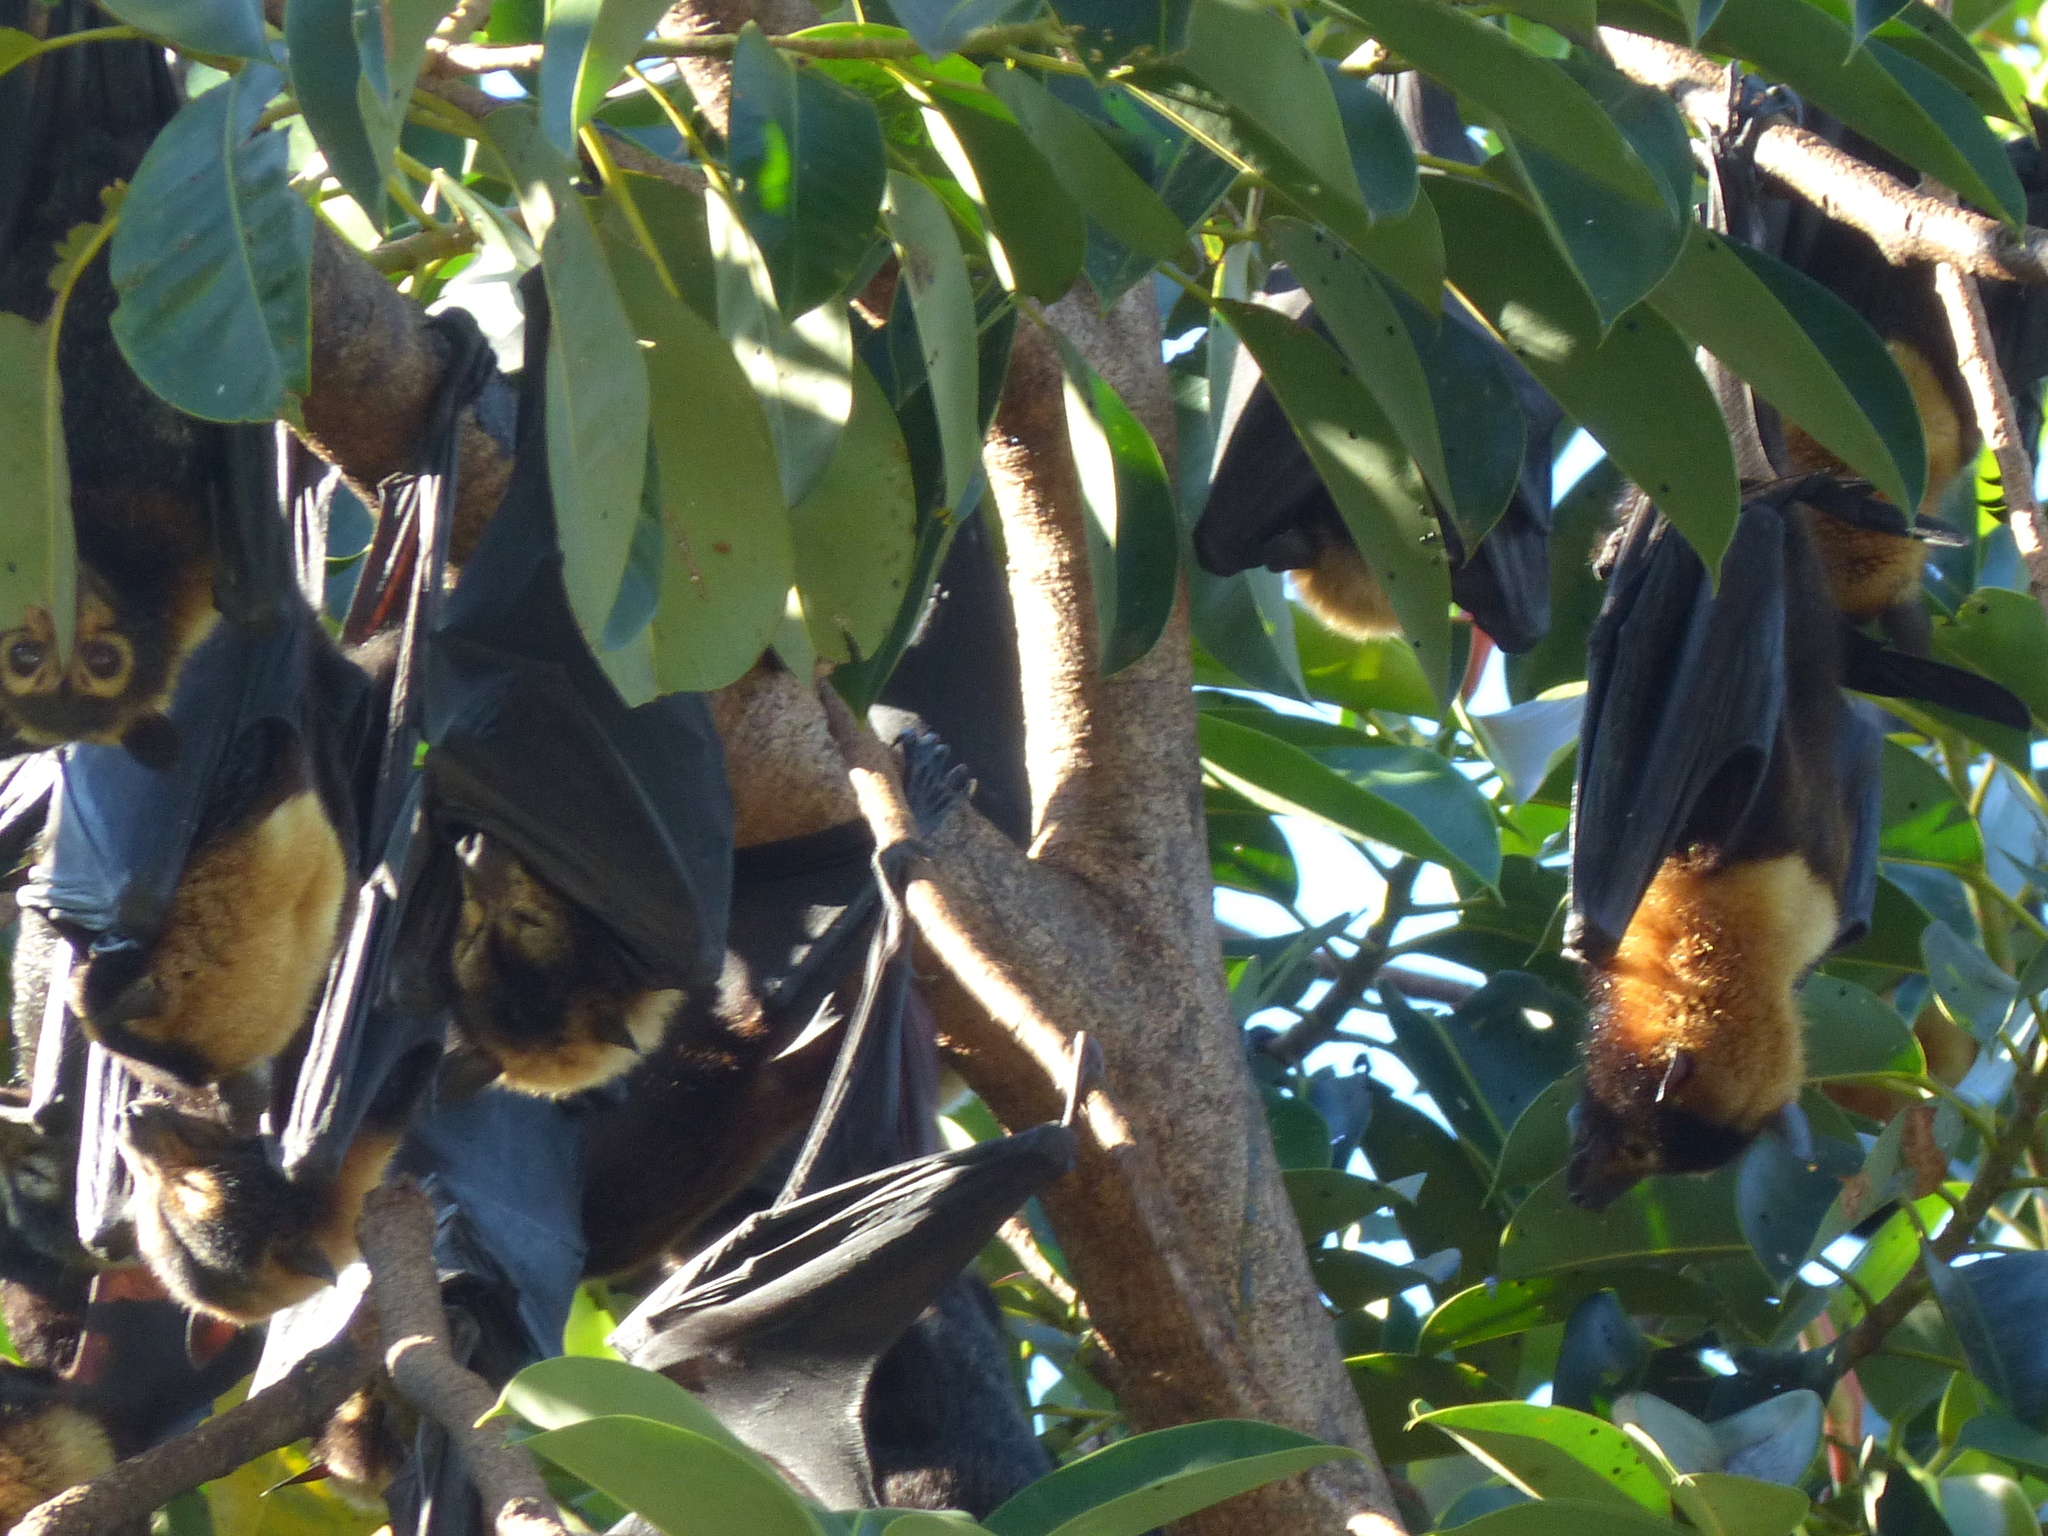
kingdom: Animalia
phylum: Chordata
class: Mammalia
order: Chiroptera
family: Pteropodidae
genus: Pteropus
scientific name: Pteropus conspicillatus
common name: Spectacled flying fox
